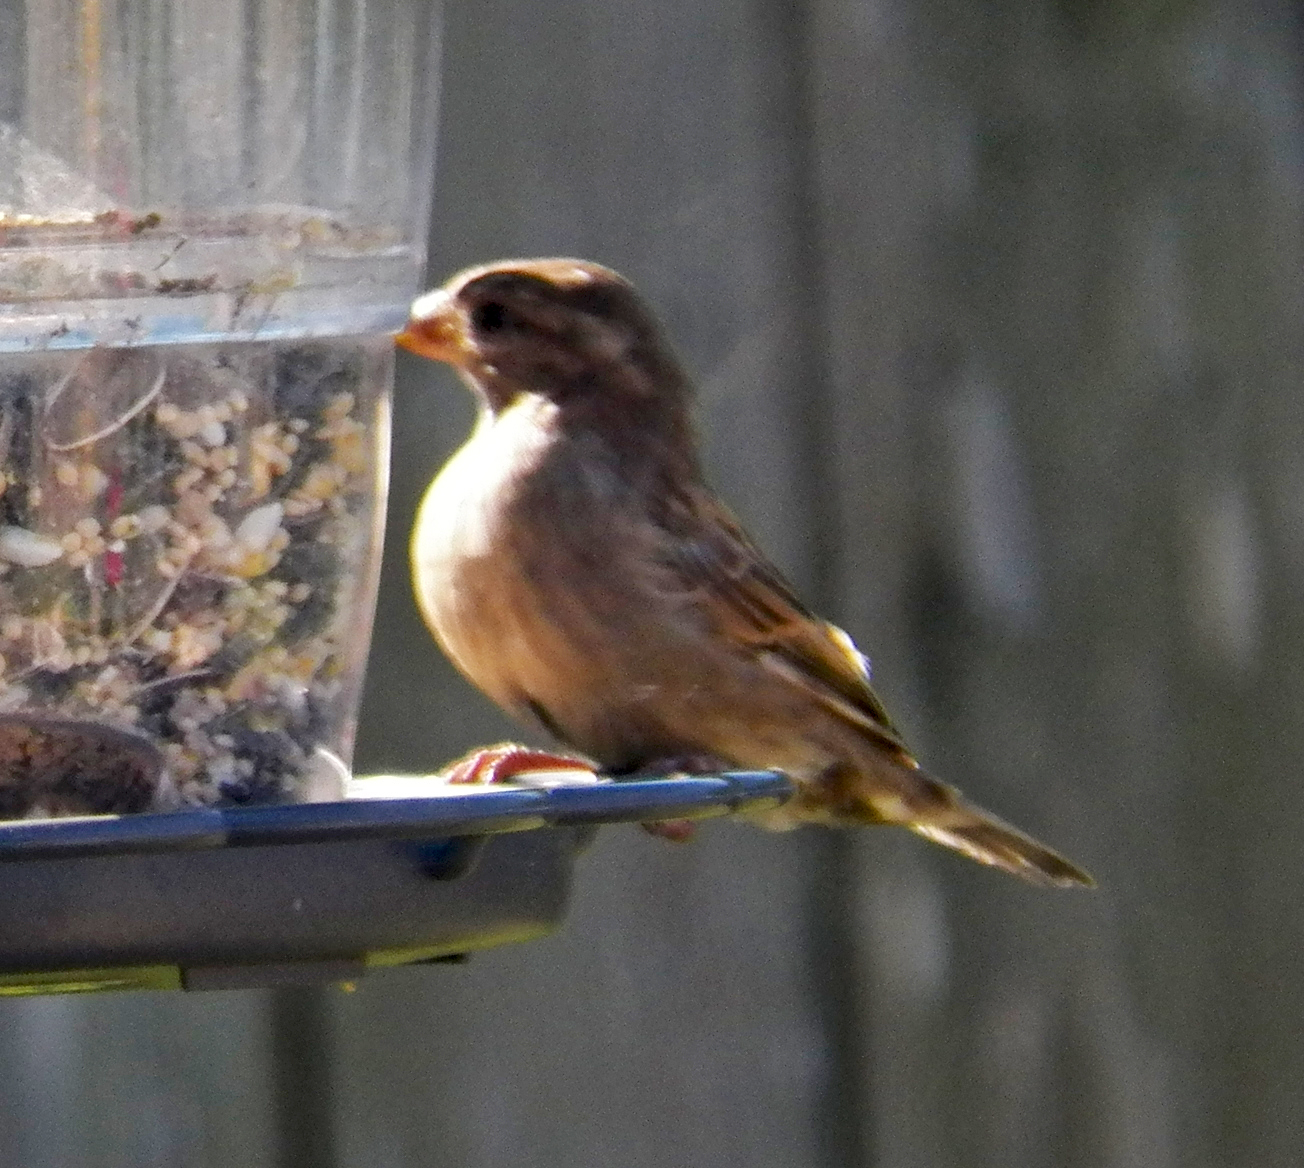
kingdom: Animalia
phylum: Chordata
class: Aves
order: Passeriformes
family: Passeridae
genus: Passer
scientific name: Passer domesticus
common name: House sparrow
